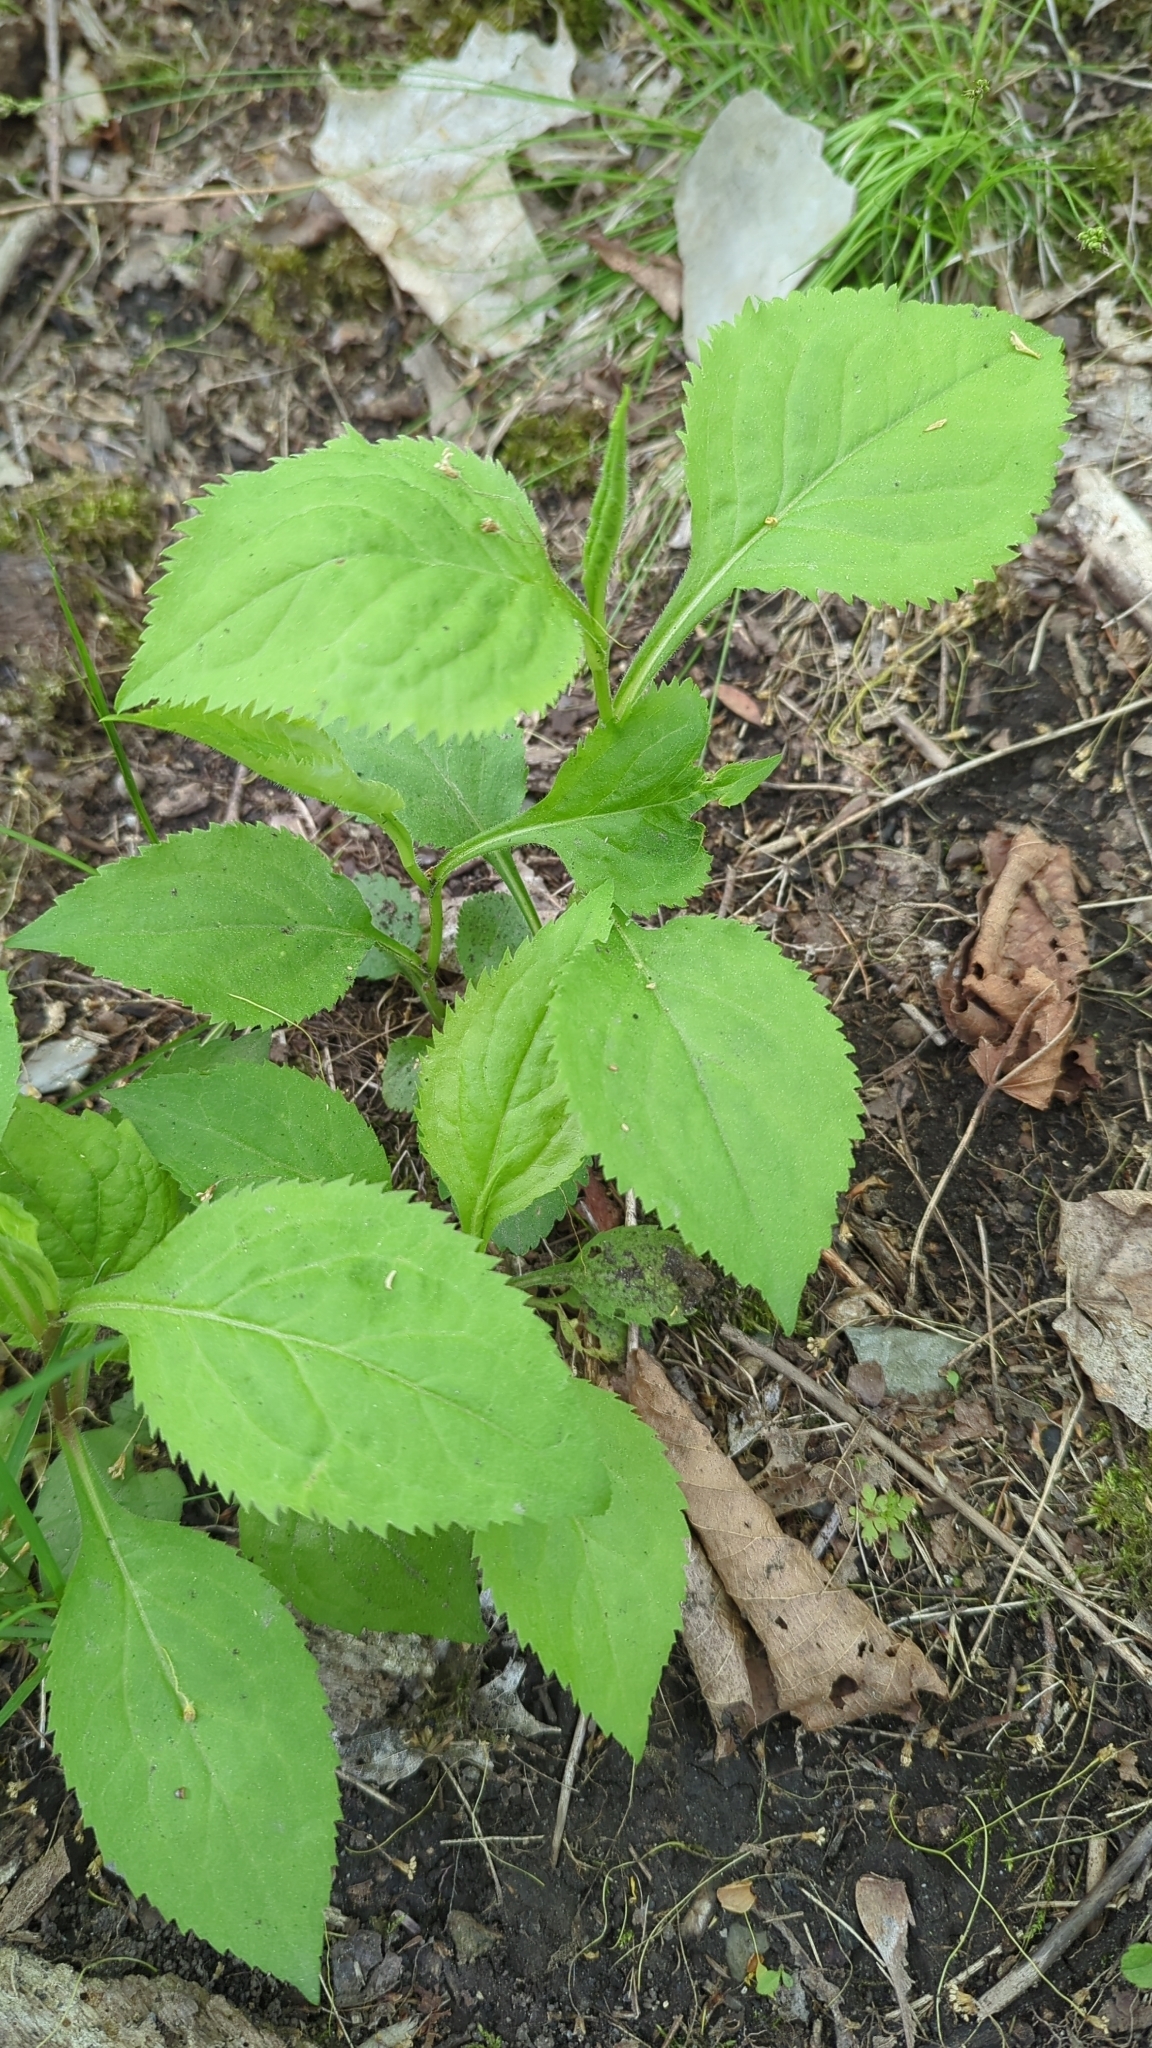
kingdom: Plantae
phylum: Tracheophyta
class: Magnoliopsida
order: Asterales
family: Asteraceae
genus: Solidago
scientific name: Solidago flexicaulis
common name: Zig-zag goldenrod
